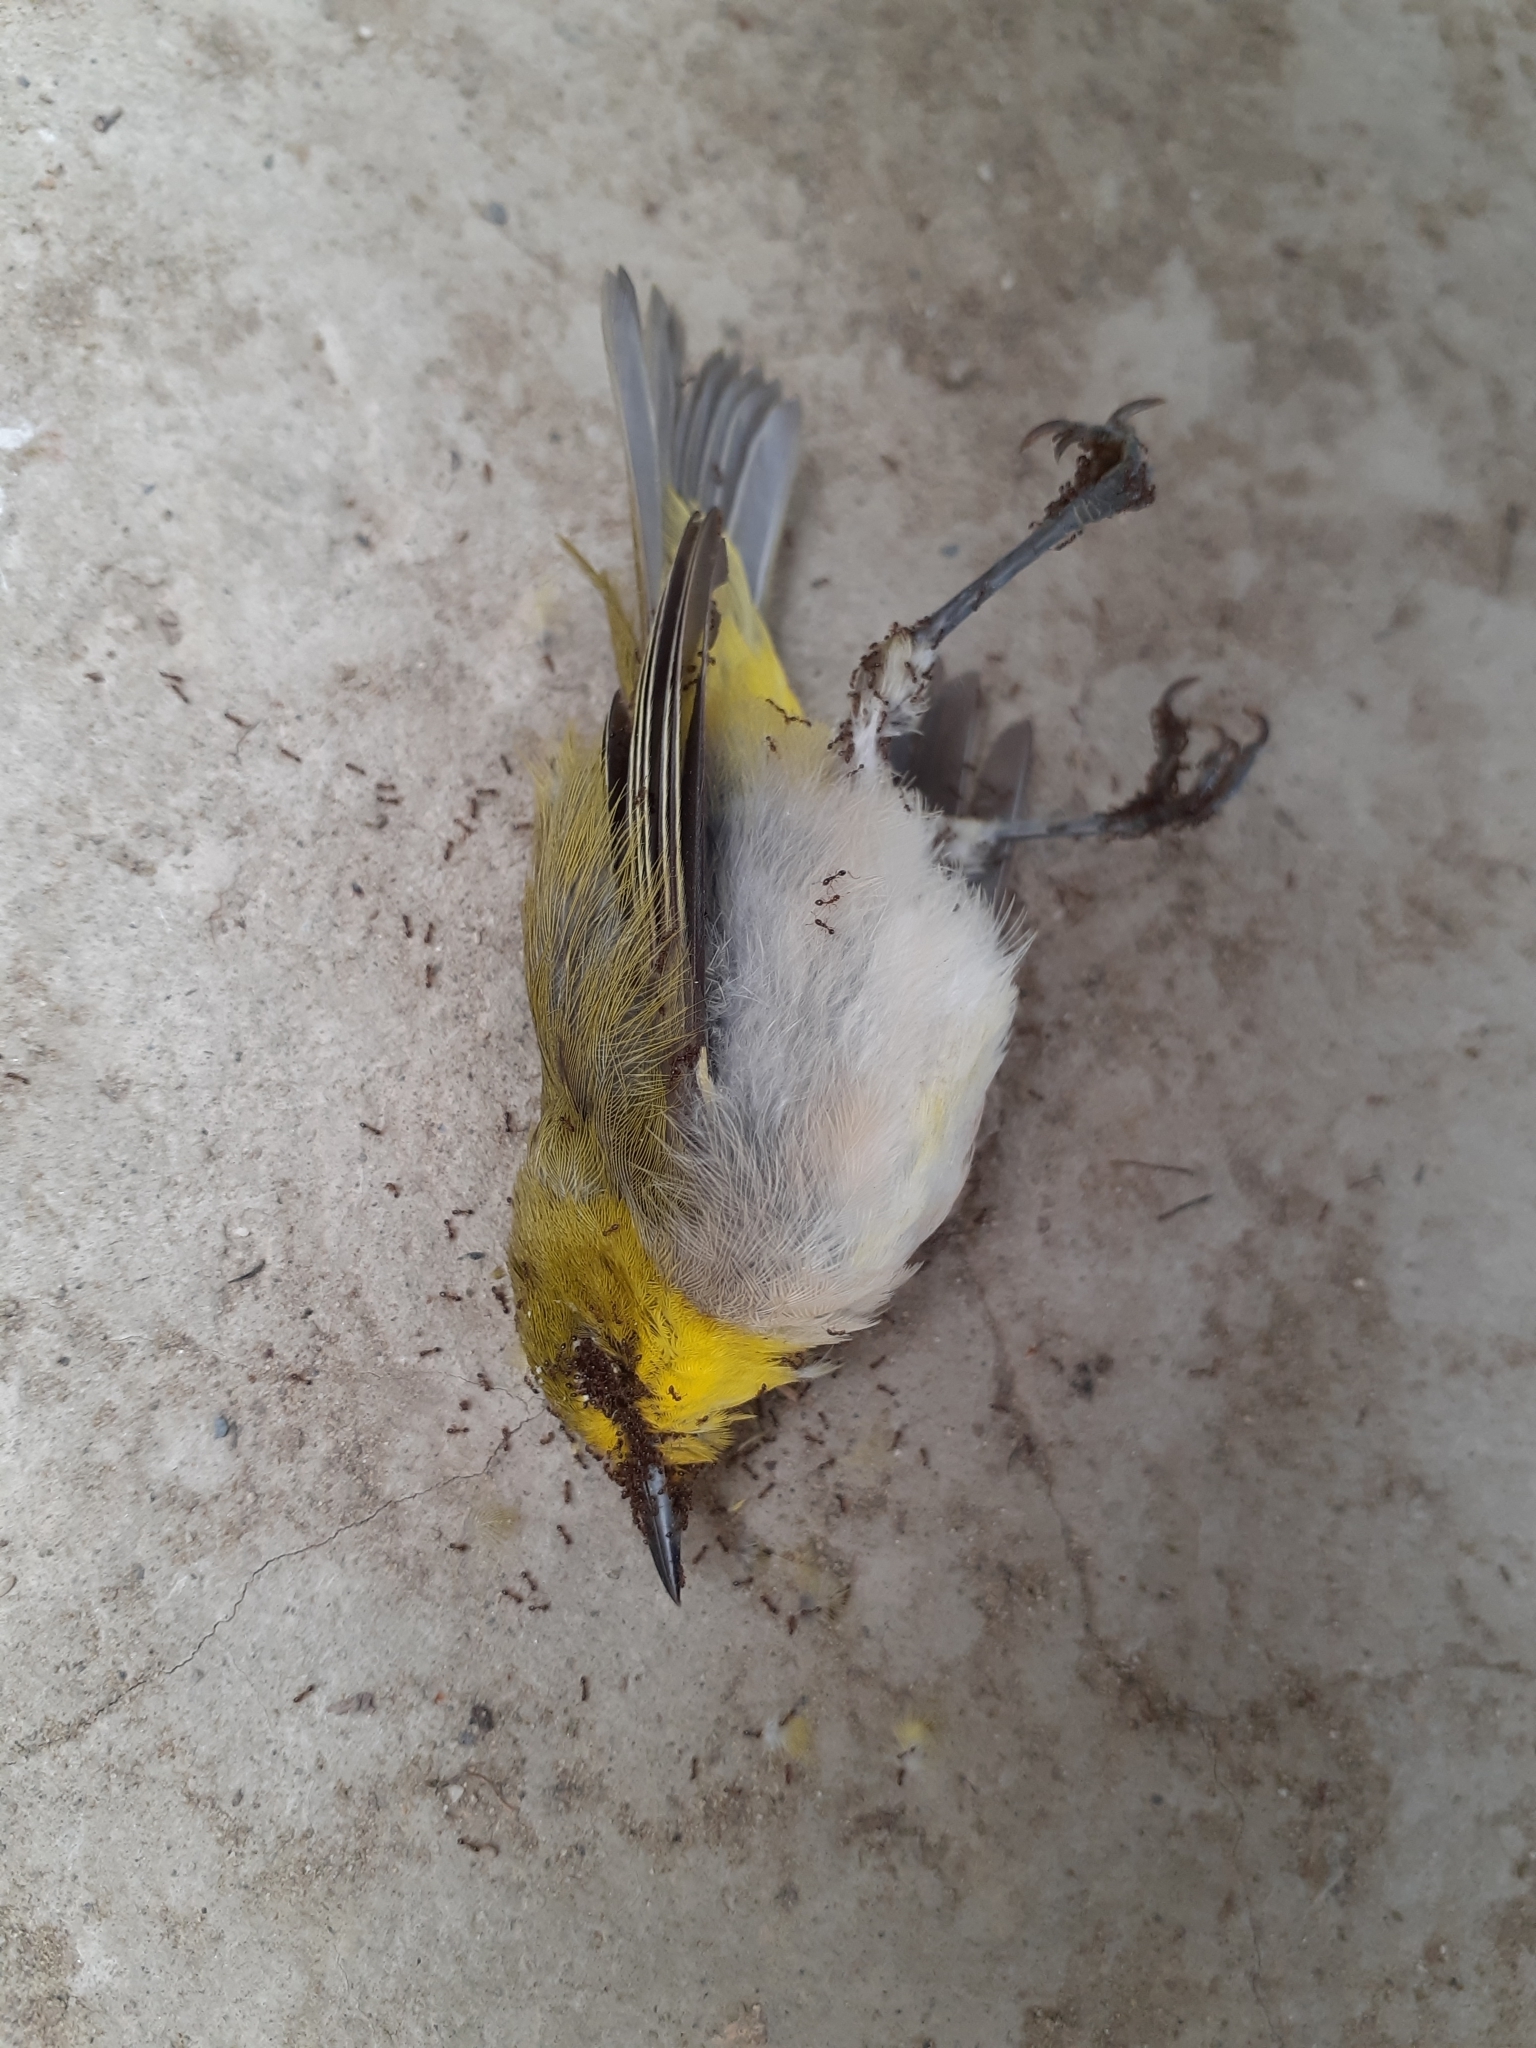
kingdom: Animalia
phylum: Chordata
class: Aves
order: Passeriformes
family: Zosteropidae
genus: Zosterops
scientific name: Zosterops simplex
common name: Swinhoe's white-eye
